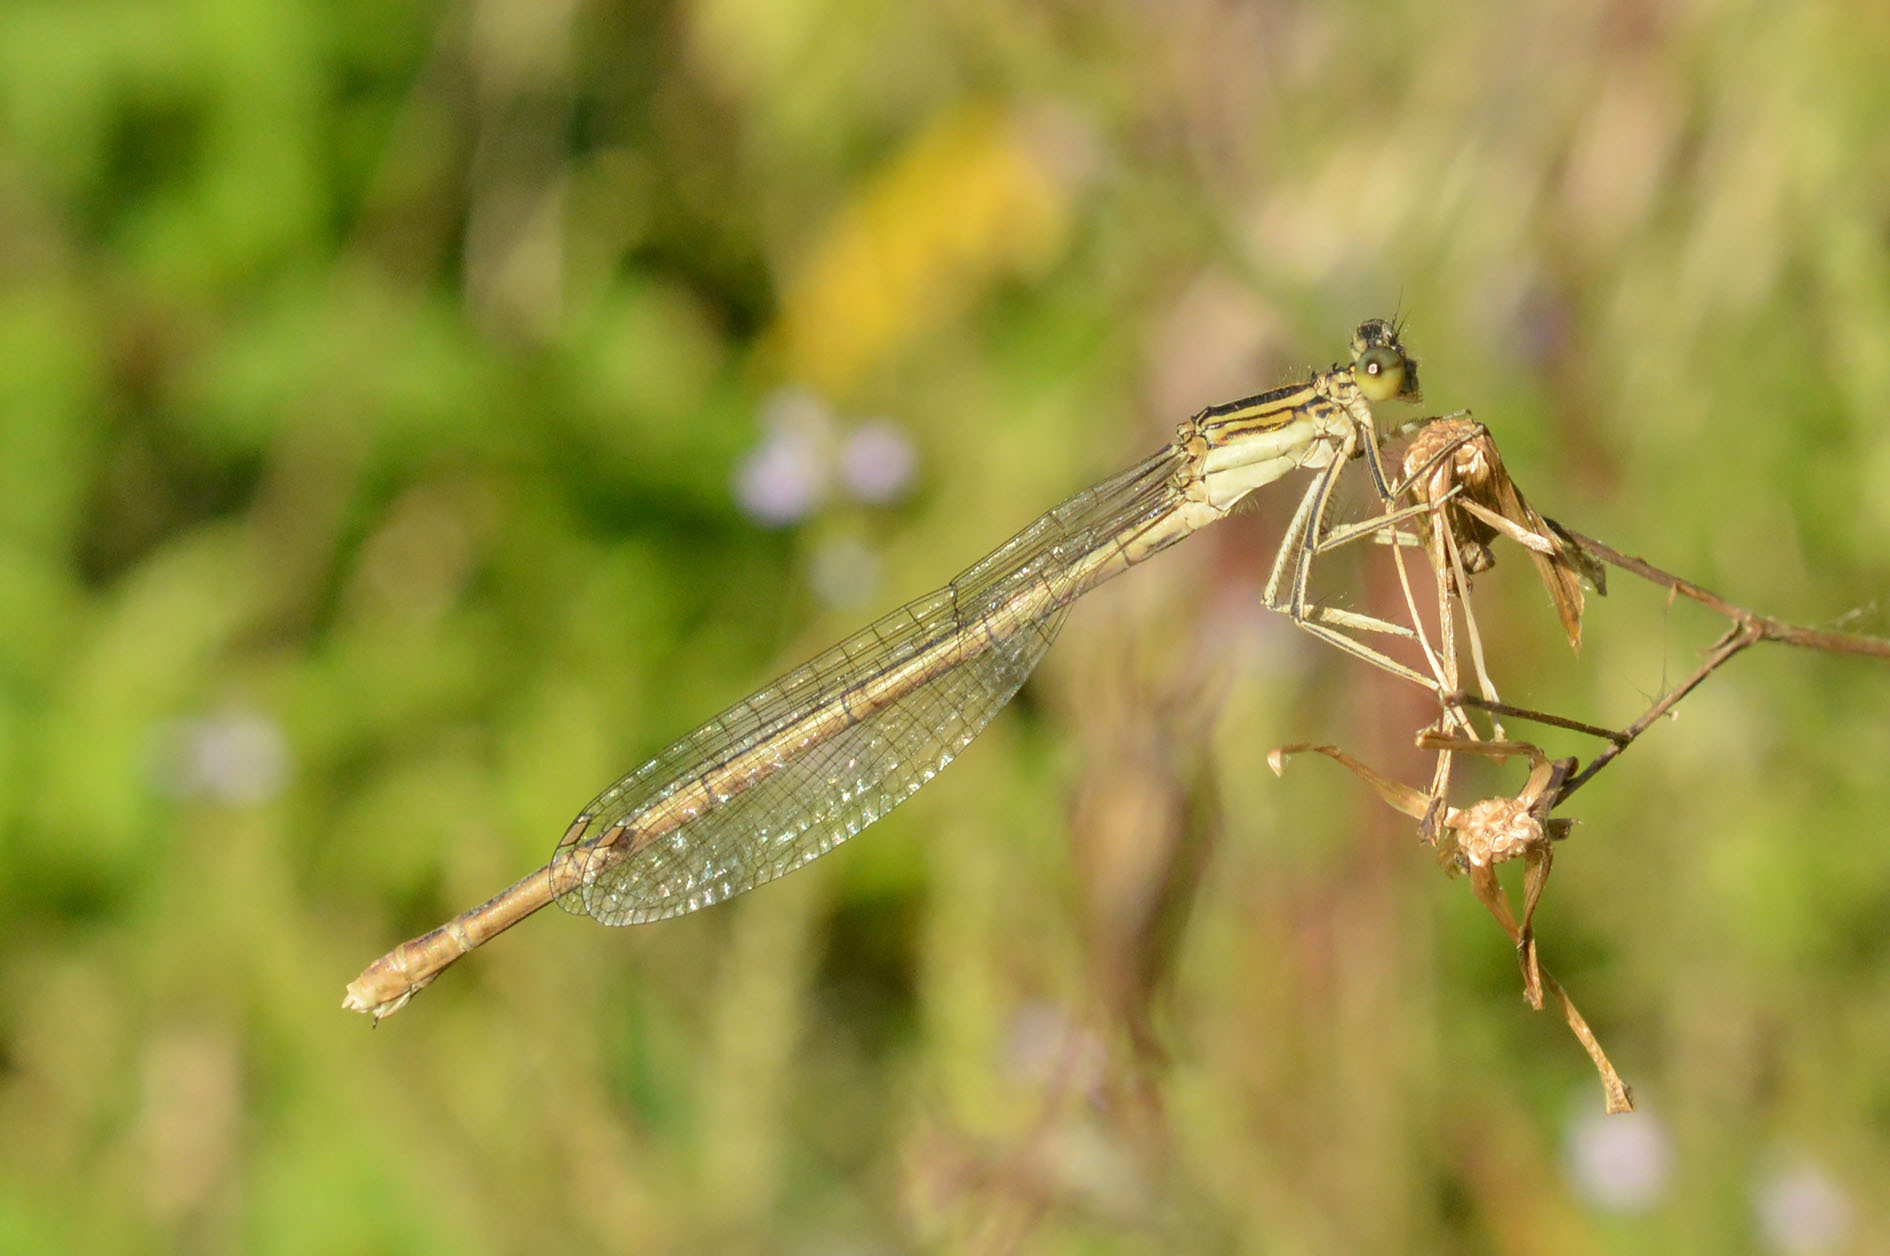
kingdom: Animalia
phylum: Arthropoda
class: Insecta
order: Odonata
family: Platycnemididae
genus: Platycnemis
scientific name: Platycnemis pennipes
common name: White-legged damselfly
